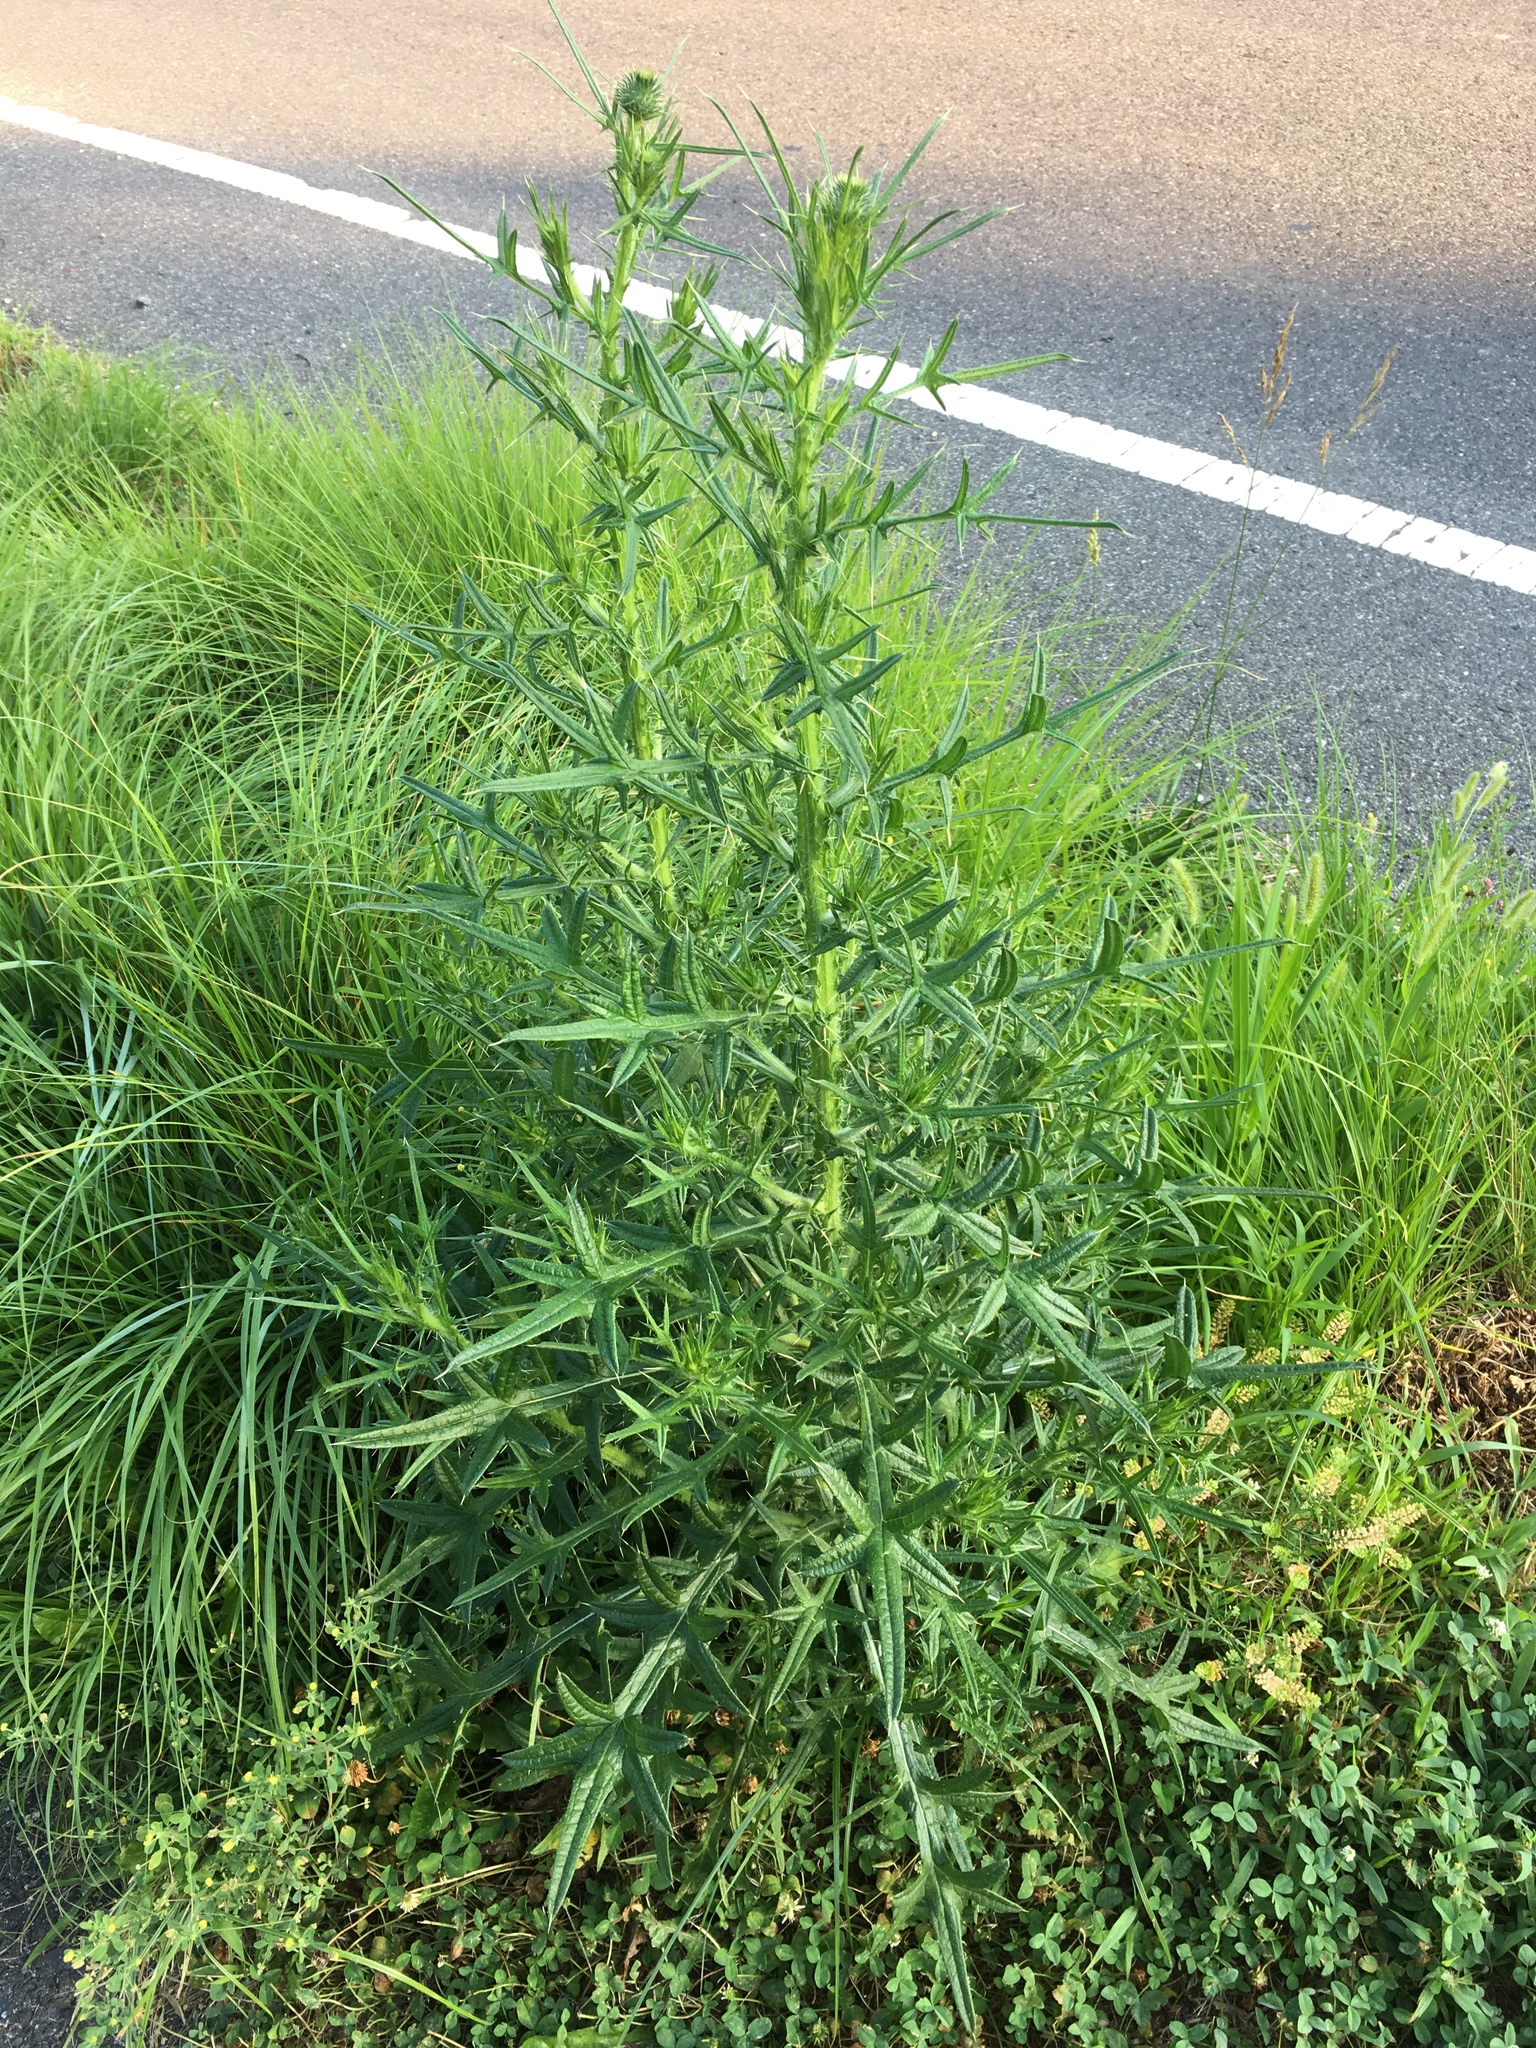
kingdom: Plantae
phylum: Tracheophyta
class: Magnoliopsida
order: Asterales
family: Asteraceae
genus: Cirsium
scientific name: Cirsium vulgare
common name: Bull thistle
